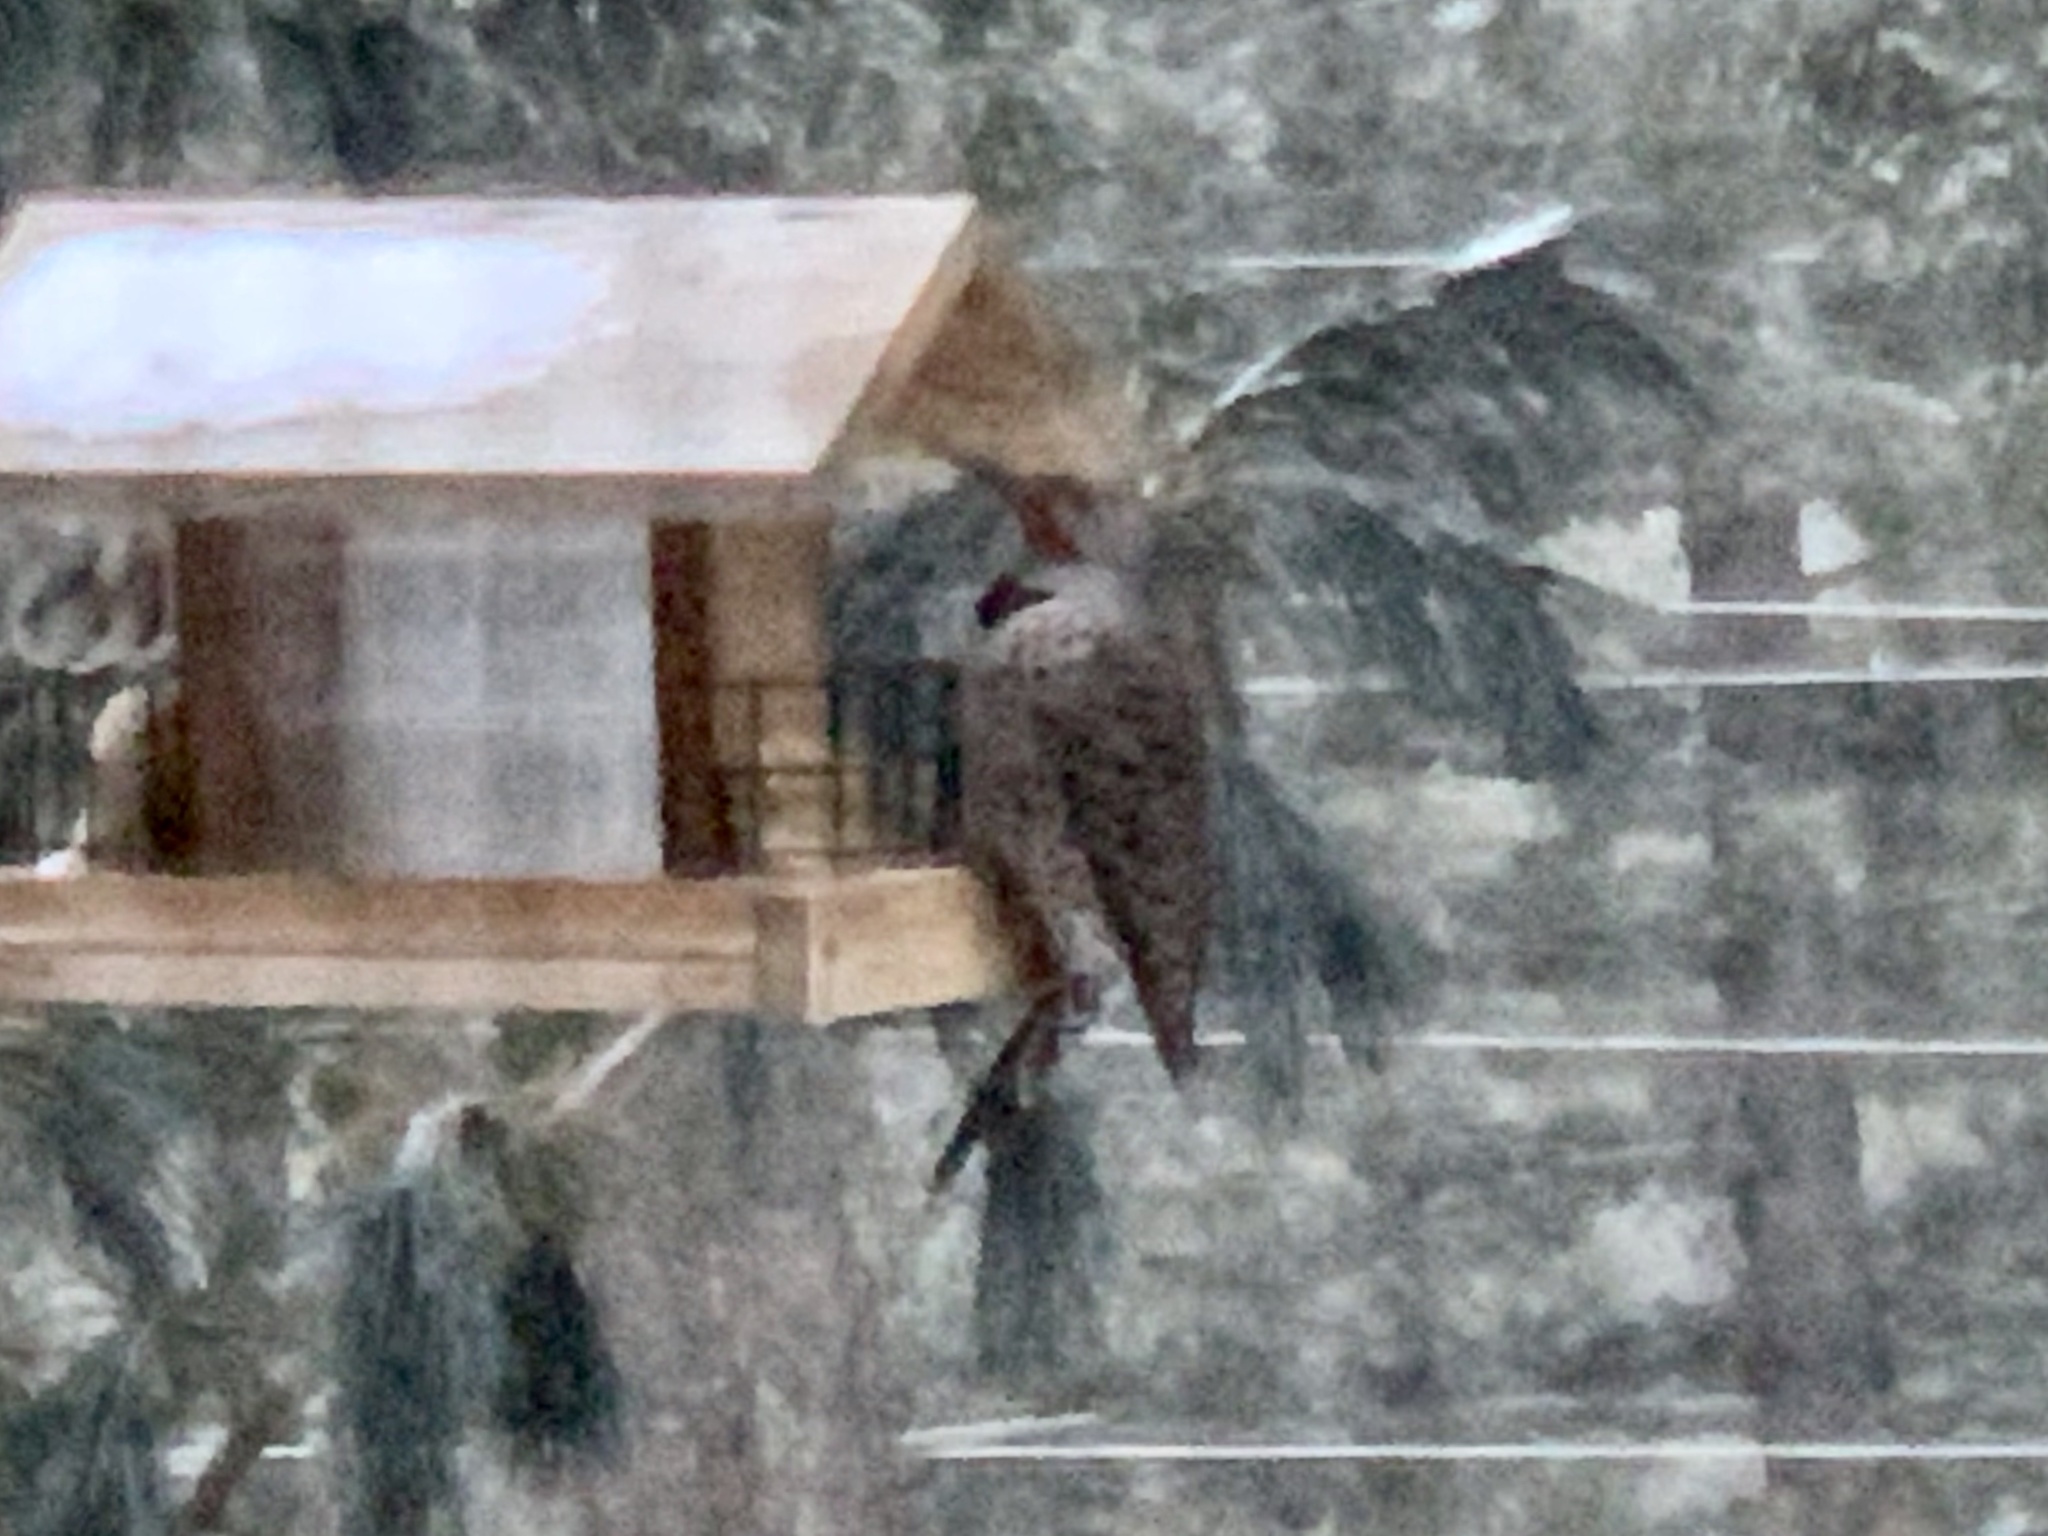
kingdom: Animalia
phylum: Chordata
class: Aves
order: Piciformes
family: Picidae
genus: Colaptes
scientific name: Colaptes auratus
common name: Northern flicker
